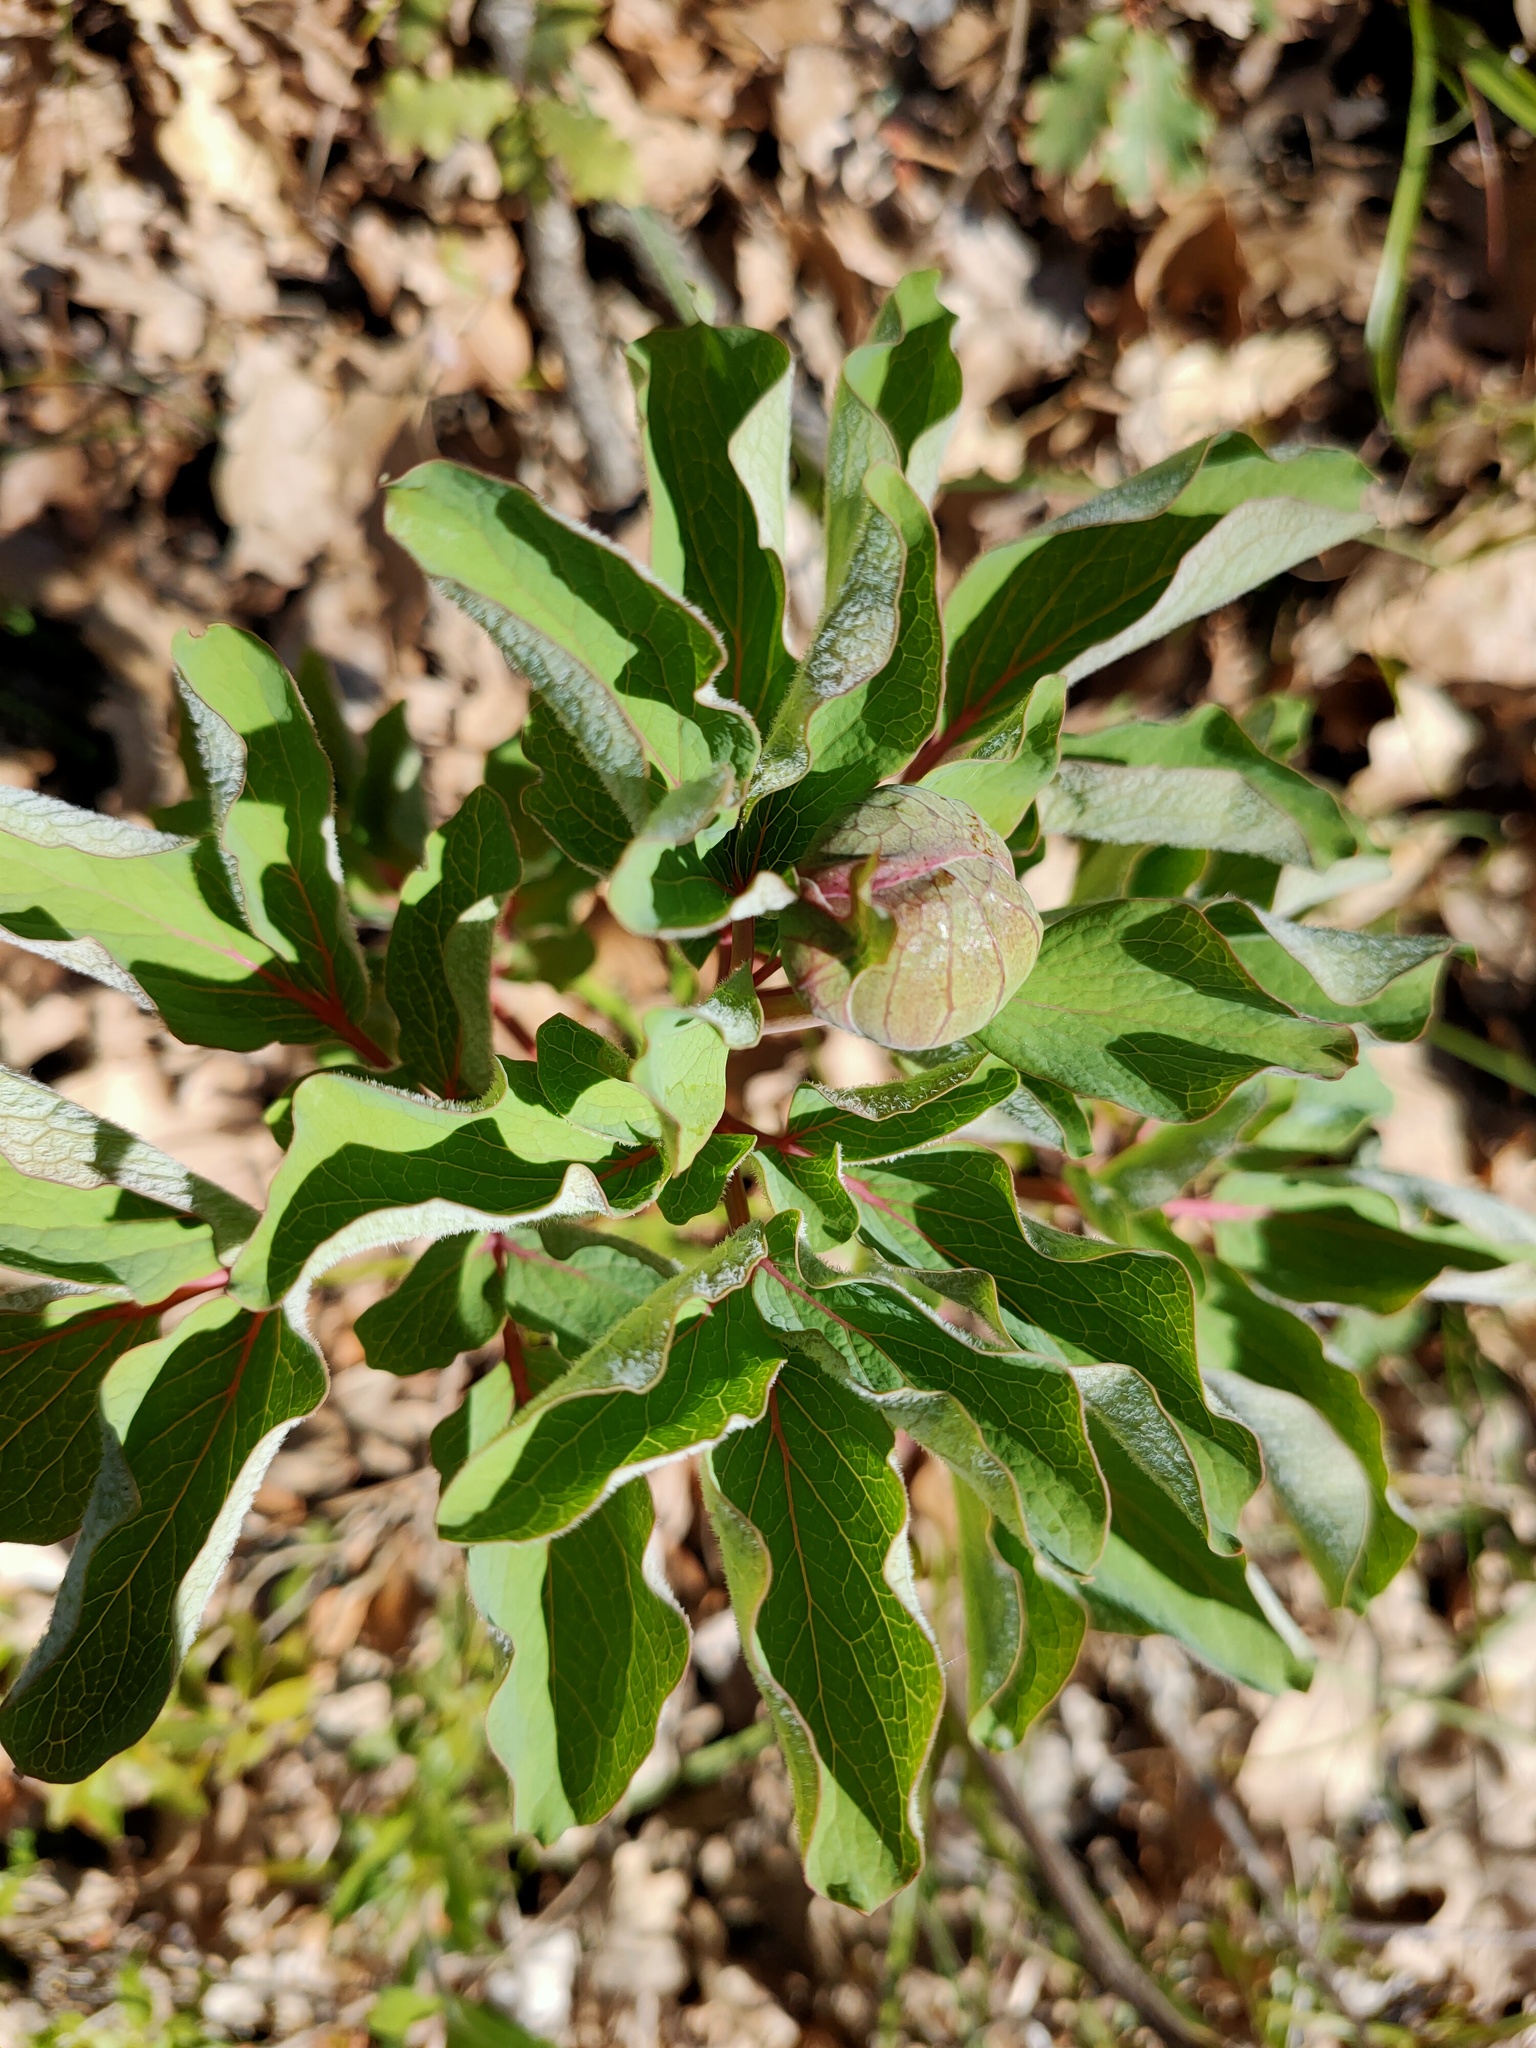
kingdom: Plantae
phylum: Tracheophyta
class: Magnoliopsida
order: Saxifragales
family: Paeoniaceae
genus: Paeonia
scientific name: Paeonia daurica
